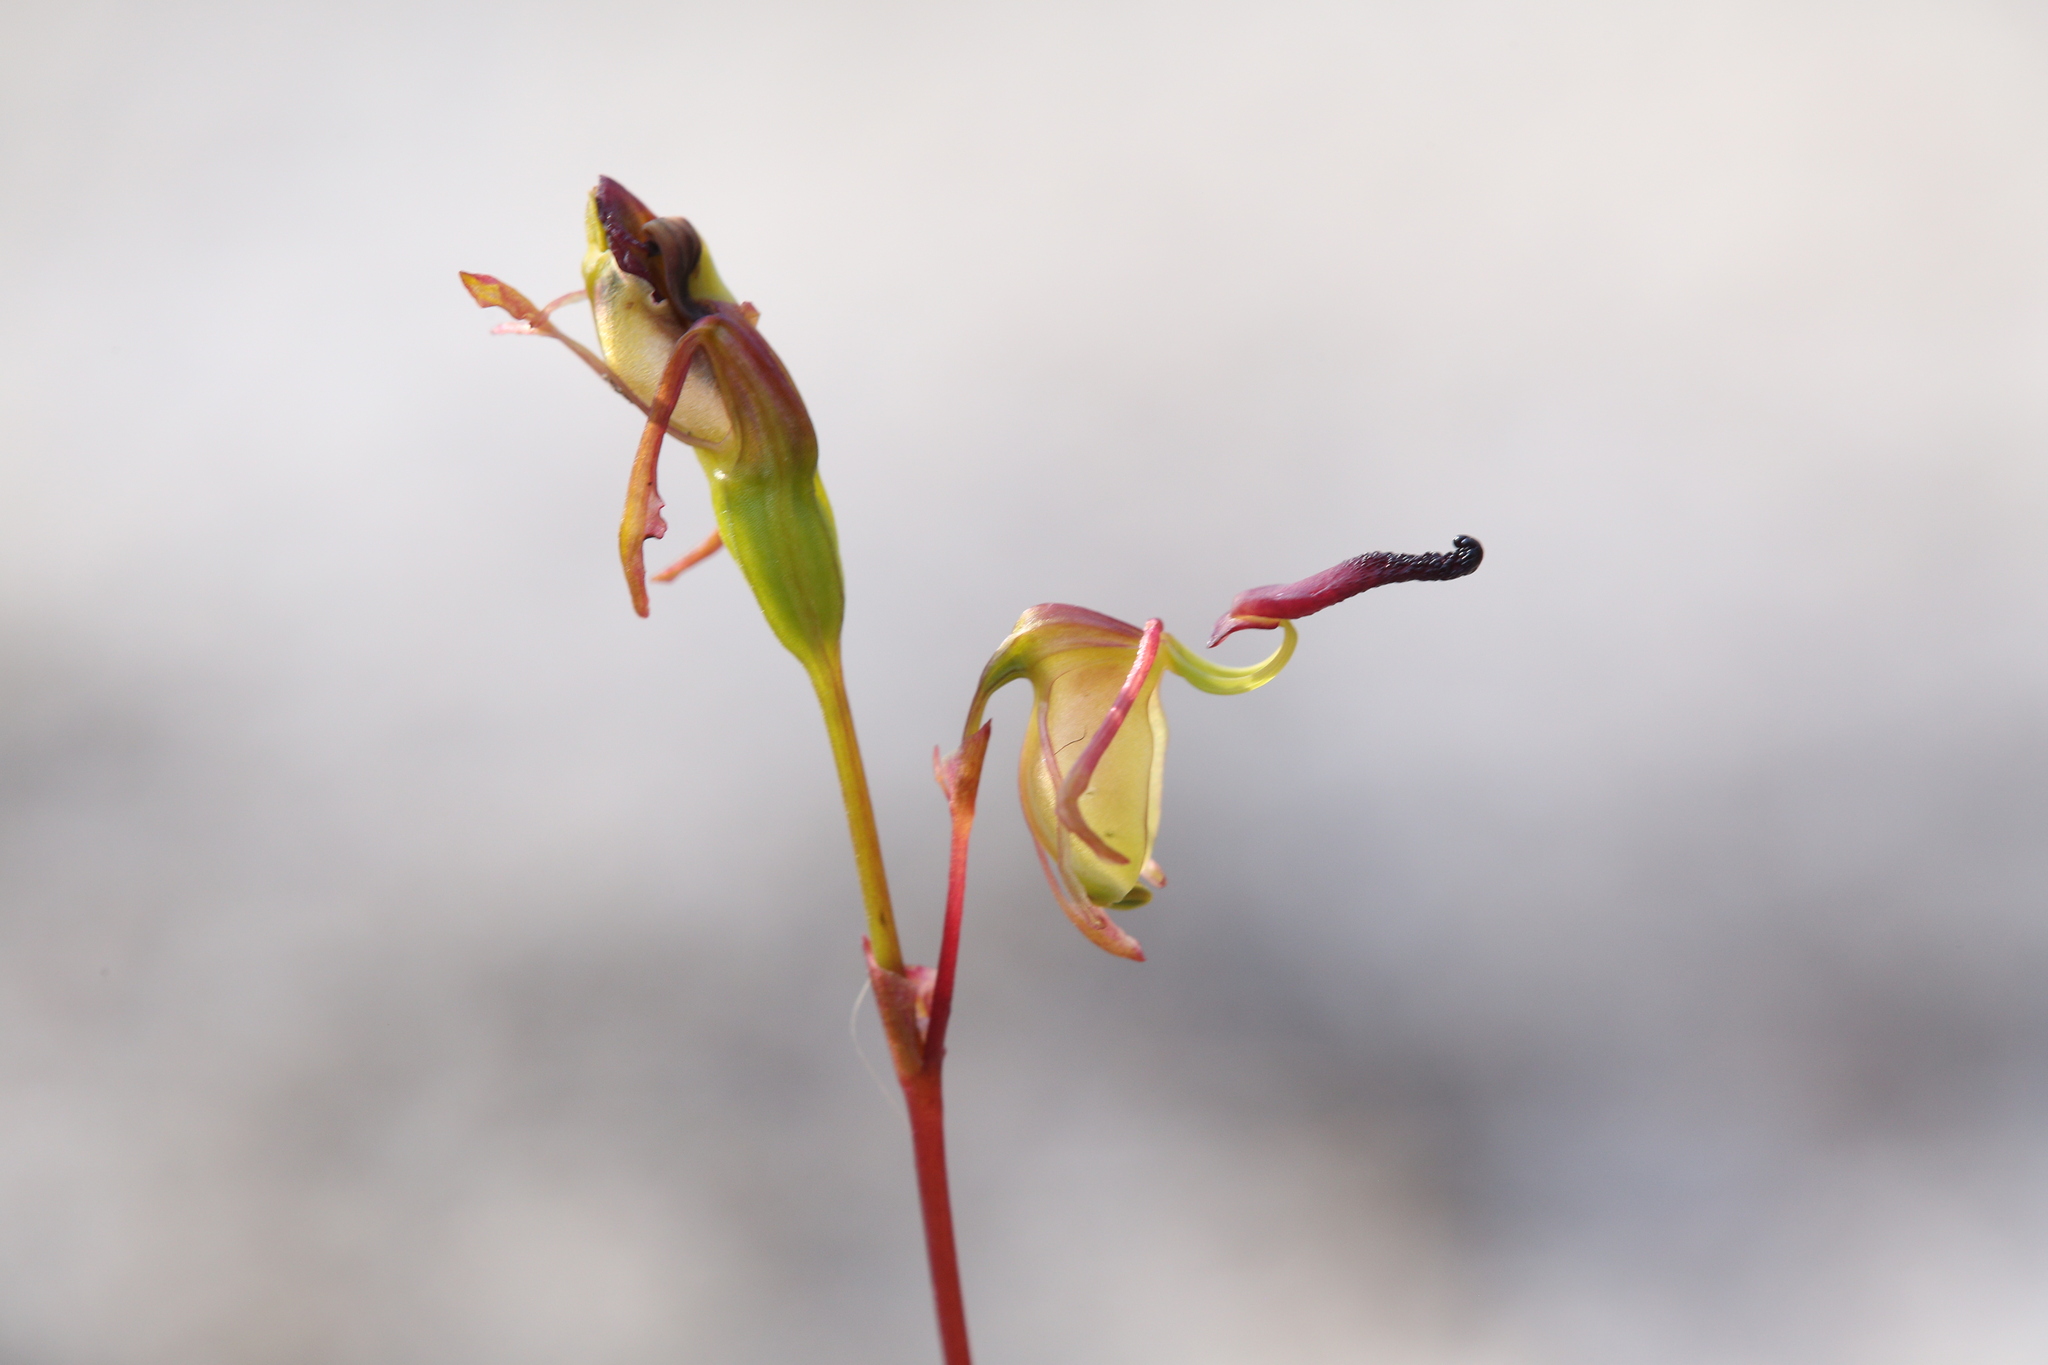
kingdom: Plantae
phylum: Tracheophyta
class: Liliopsida
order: Asparagales
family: Orchidaceae
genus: Caleana
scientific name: Caleana nigrita
